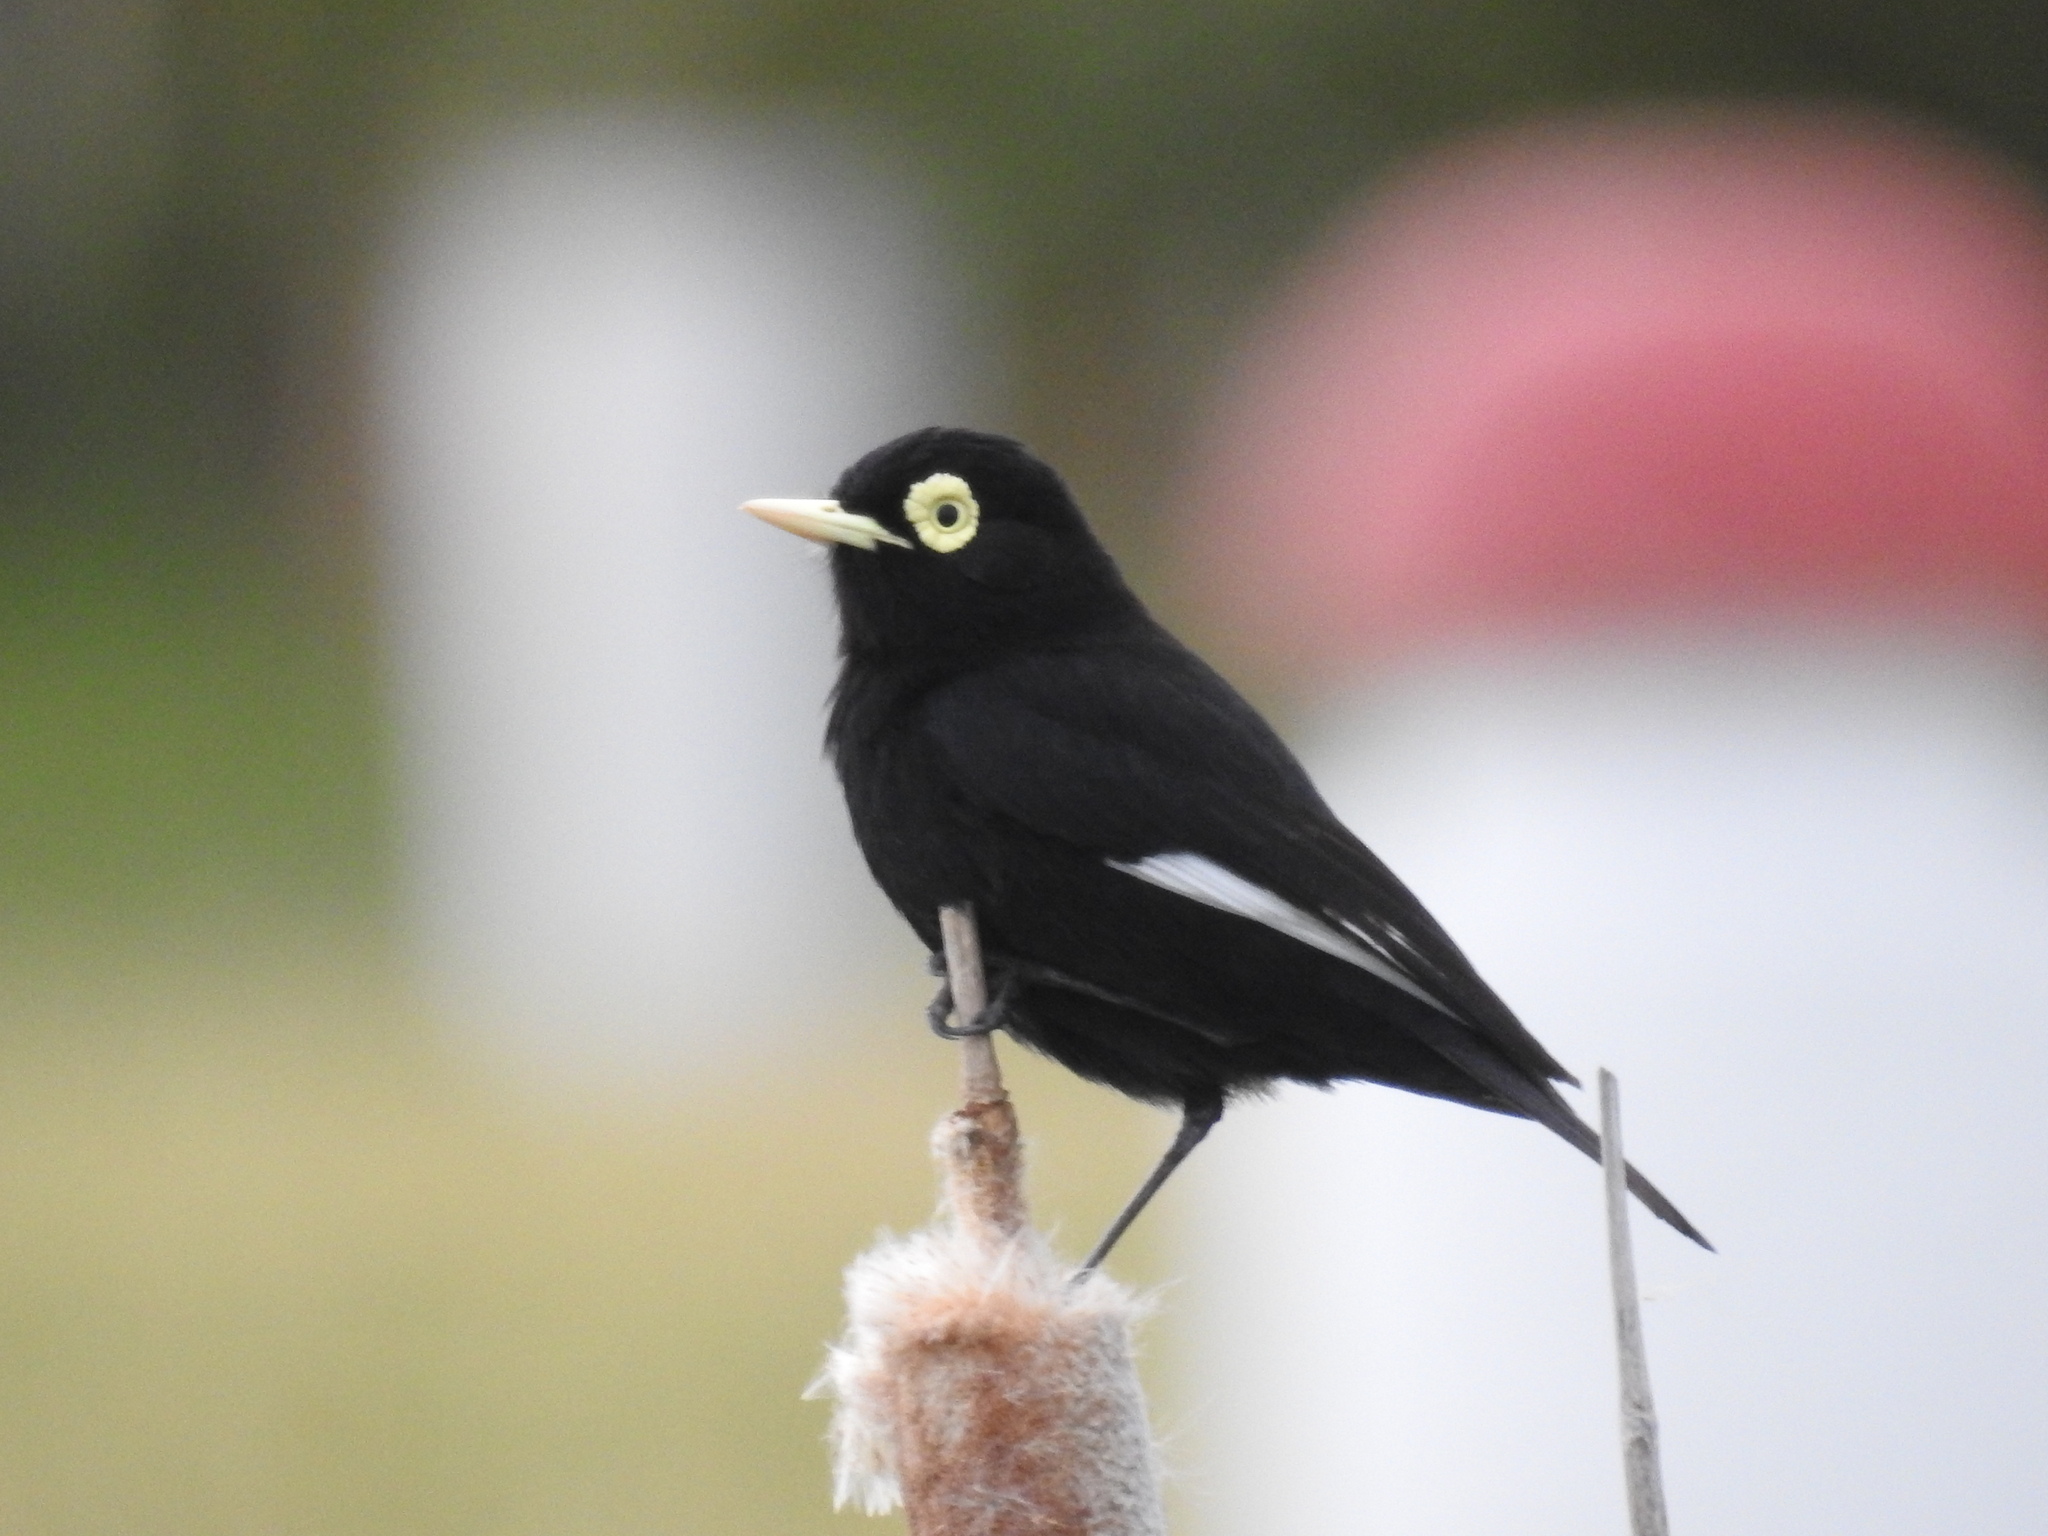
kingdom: Animalia
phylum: Chordata
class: Aves
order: Passeriformes
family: Tyrannidae
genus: Hymenops
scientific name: Hymenops perspicillatus
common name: Spectacled tyrant
